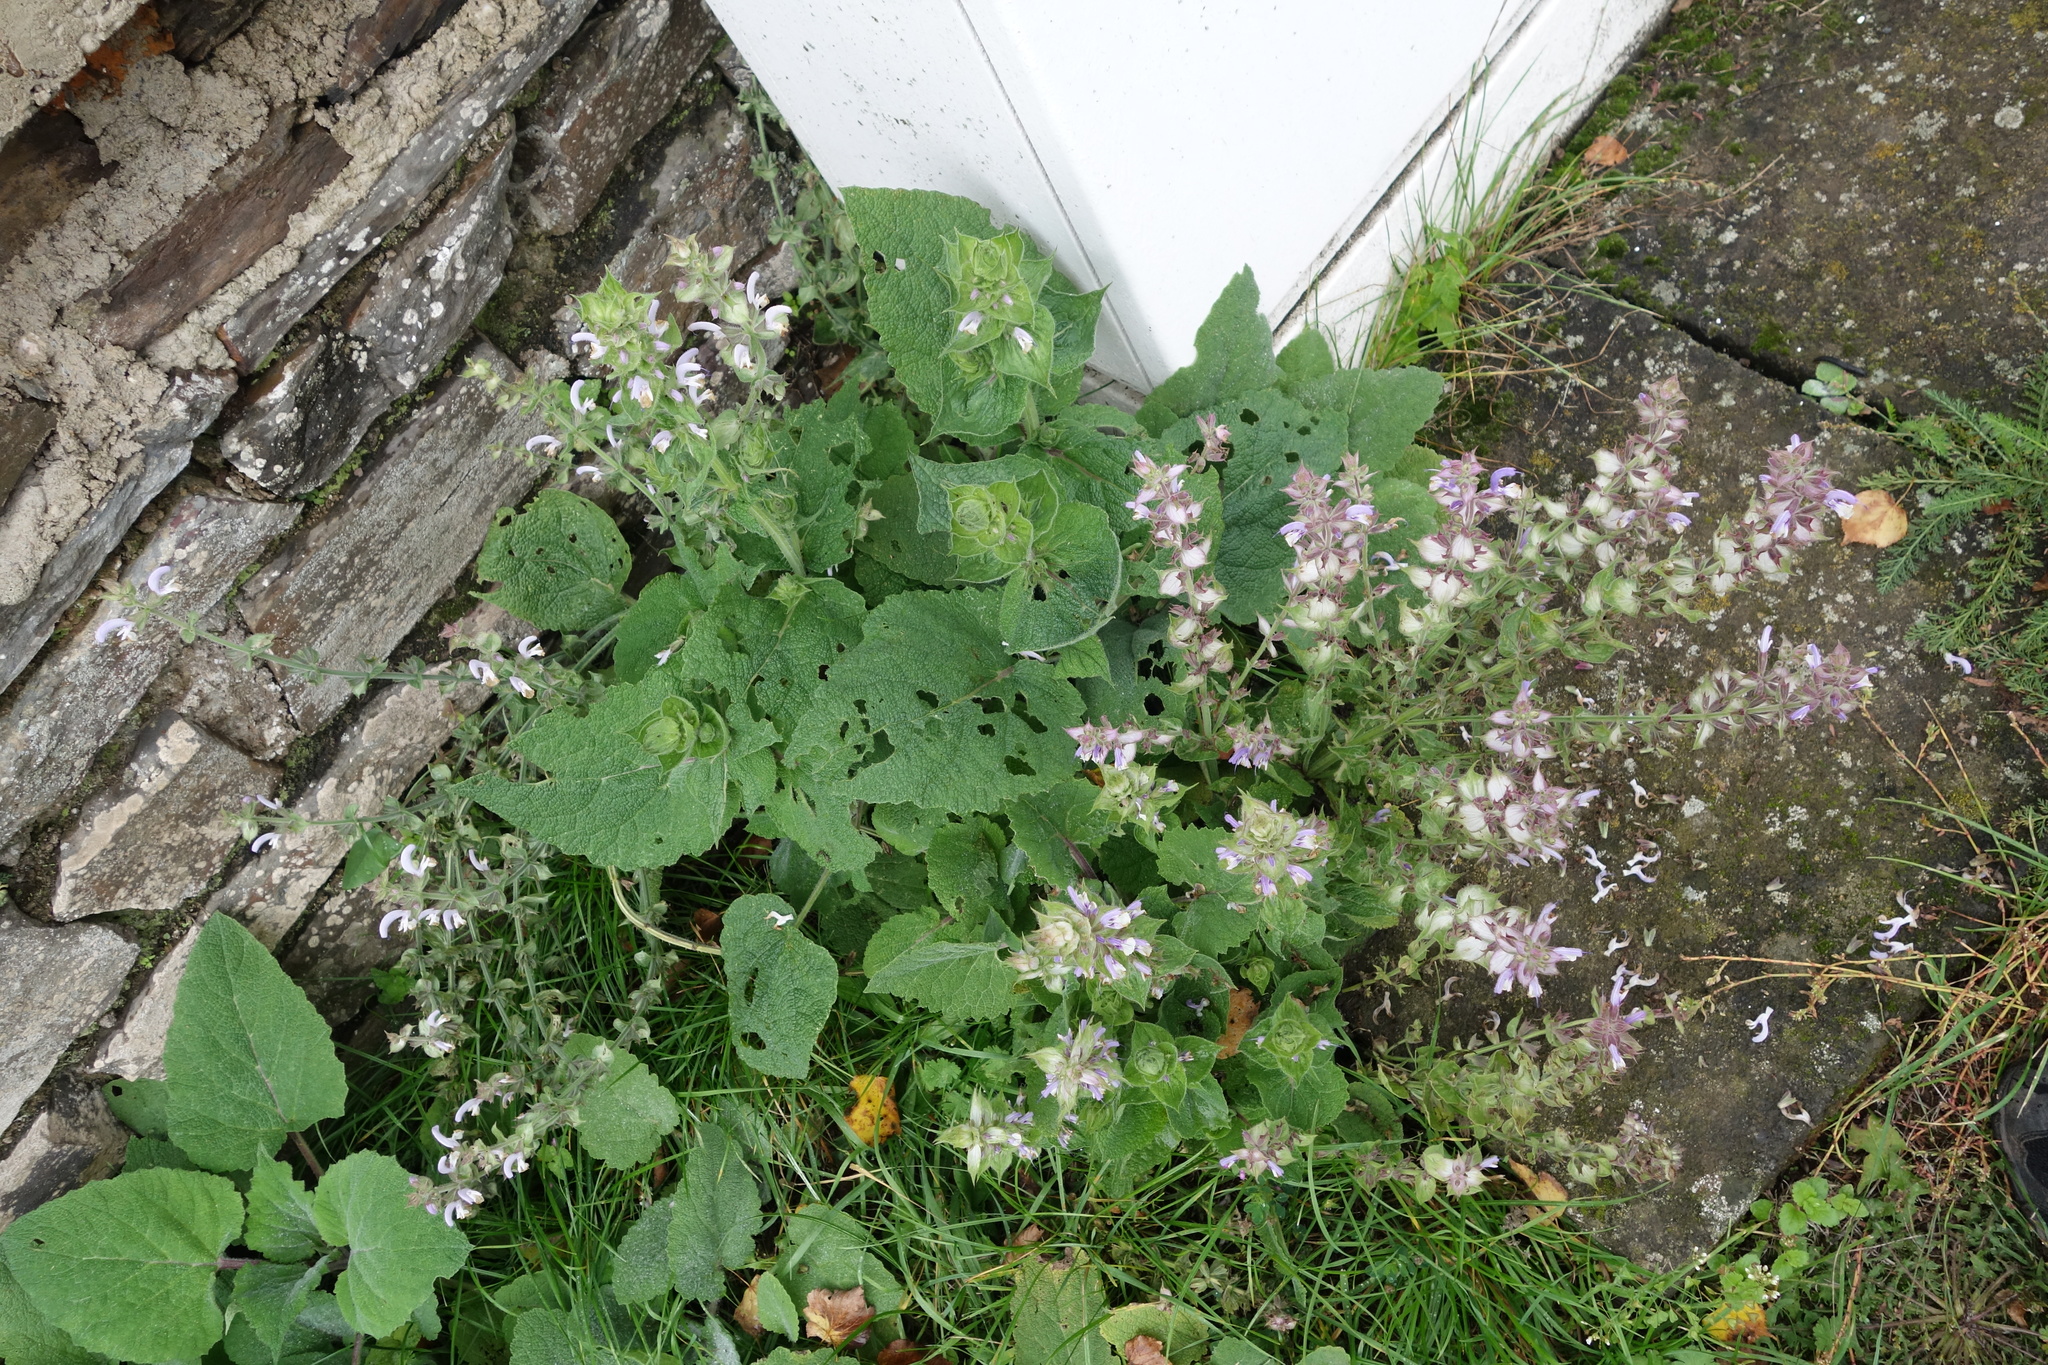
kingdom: Plantae
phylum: Tracheophyta
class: Magnoliopsida
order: Lamiales
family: Lamiaceae
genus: Salvia
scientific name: Salvia sclarea
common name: Clary
